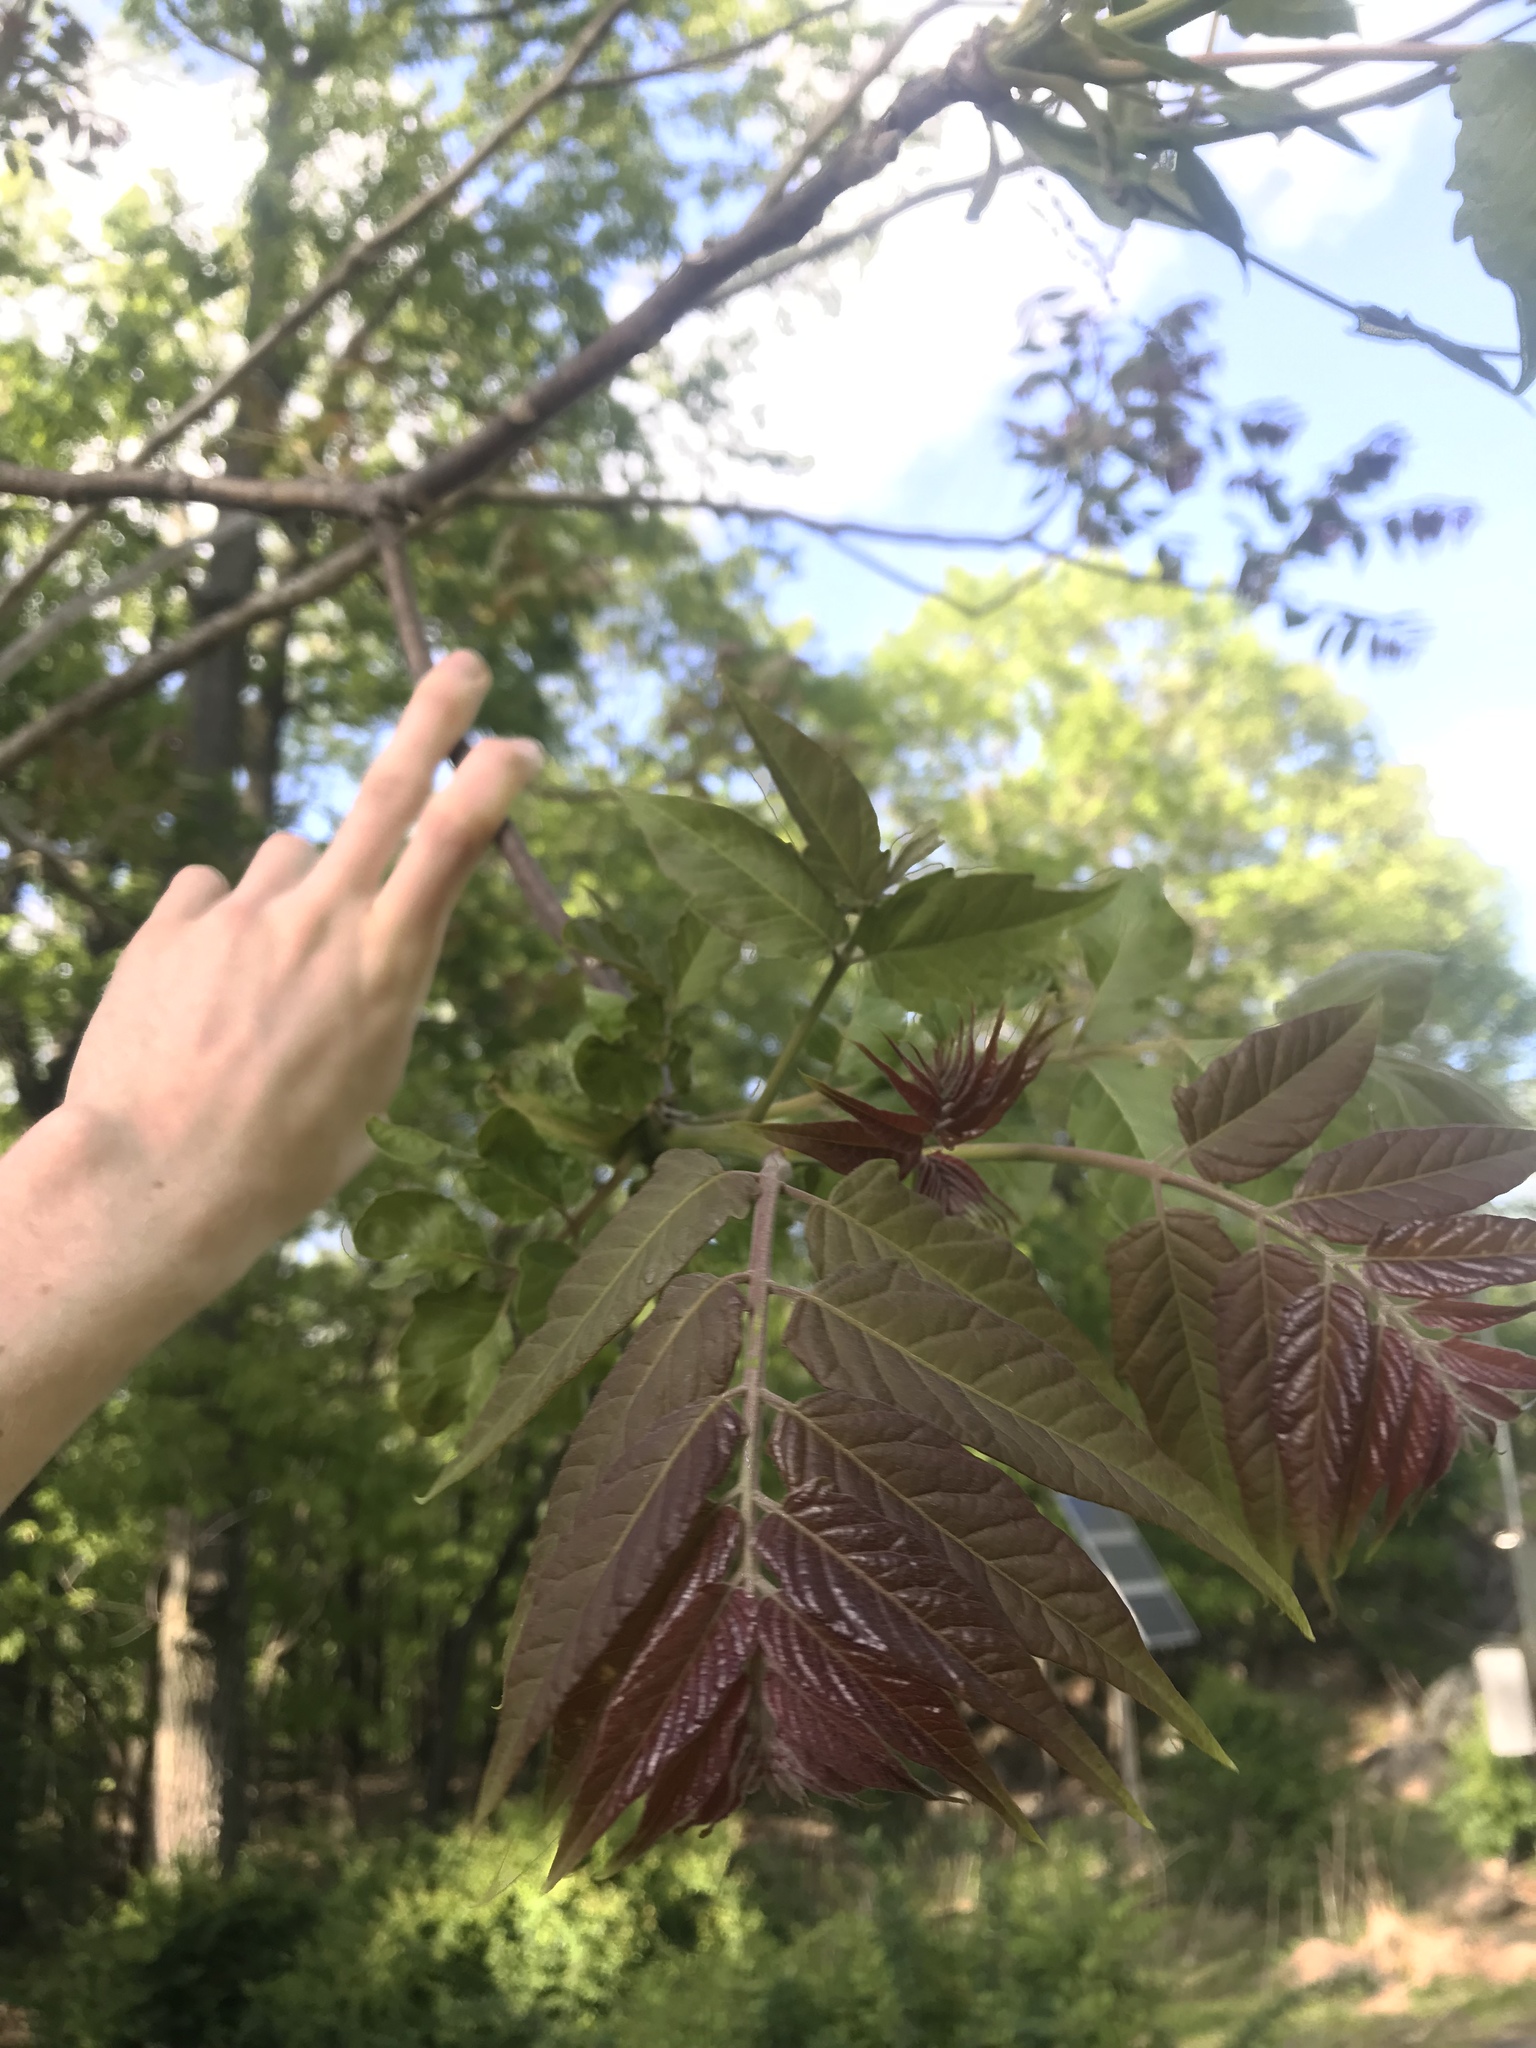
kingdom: Plantae
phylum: Tracheophyta
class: Magnoliopsida
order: Sapindales
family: Simaroubaceae
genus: Ailanthus
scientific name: Ailanthus altissima
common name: Tree-of-heaven
